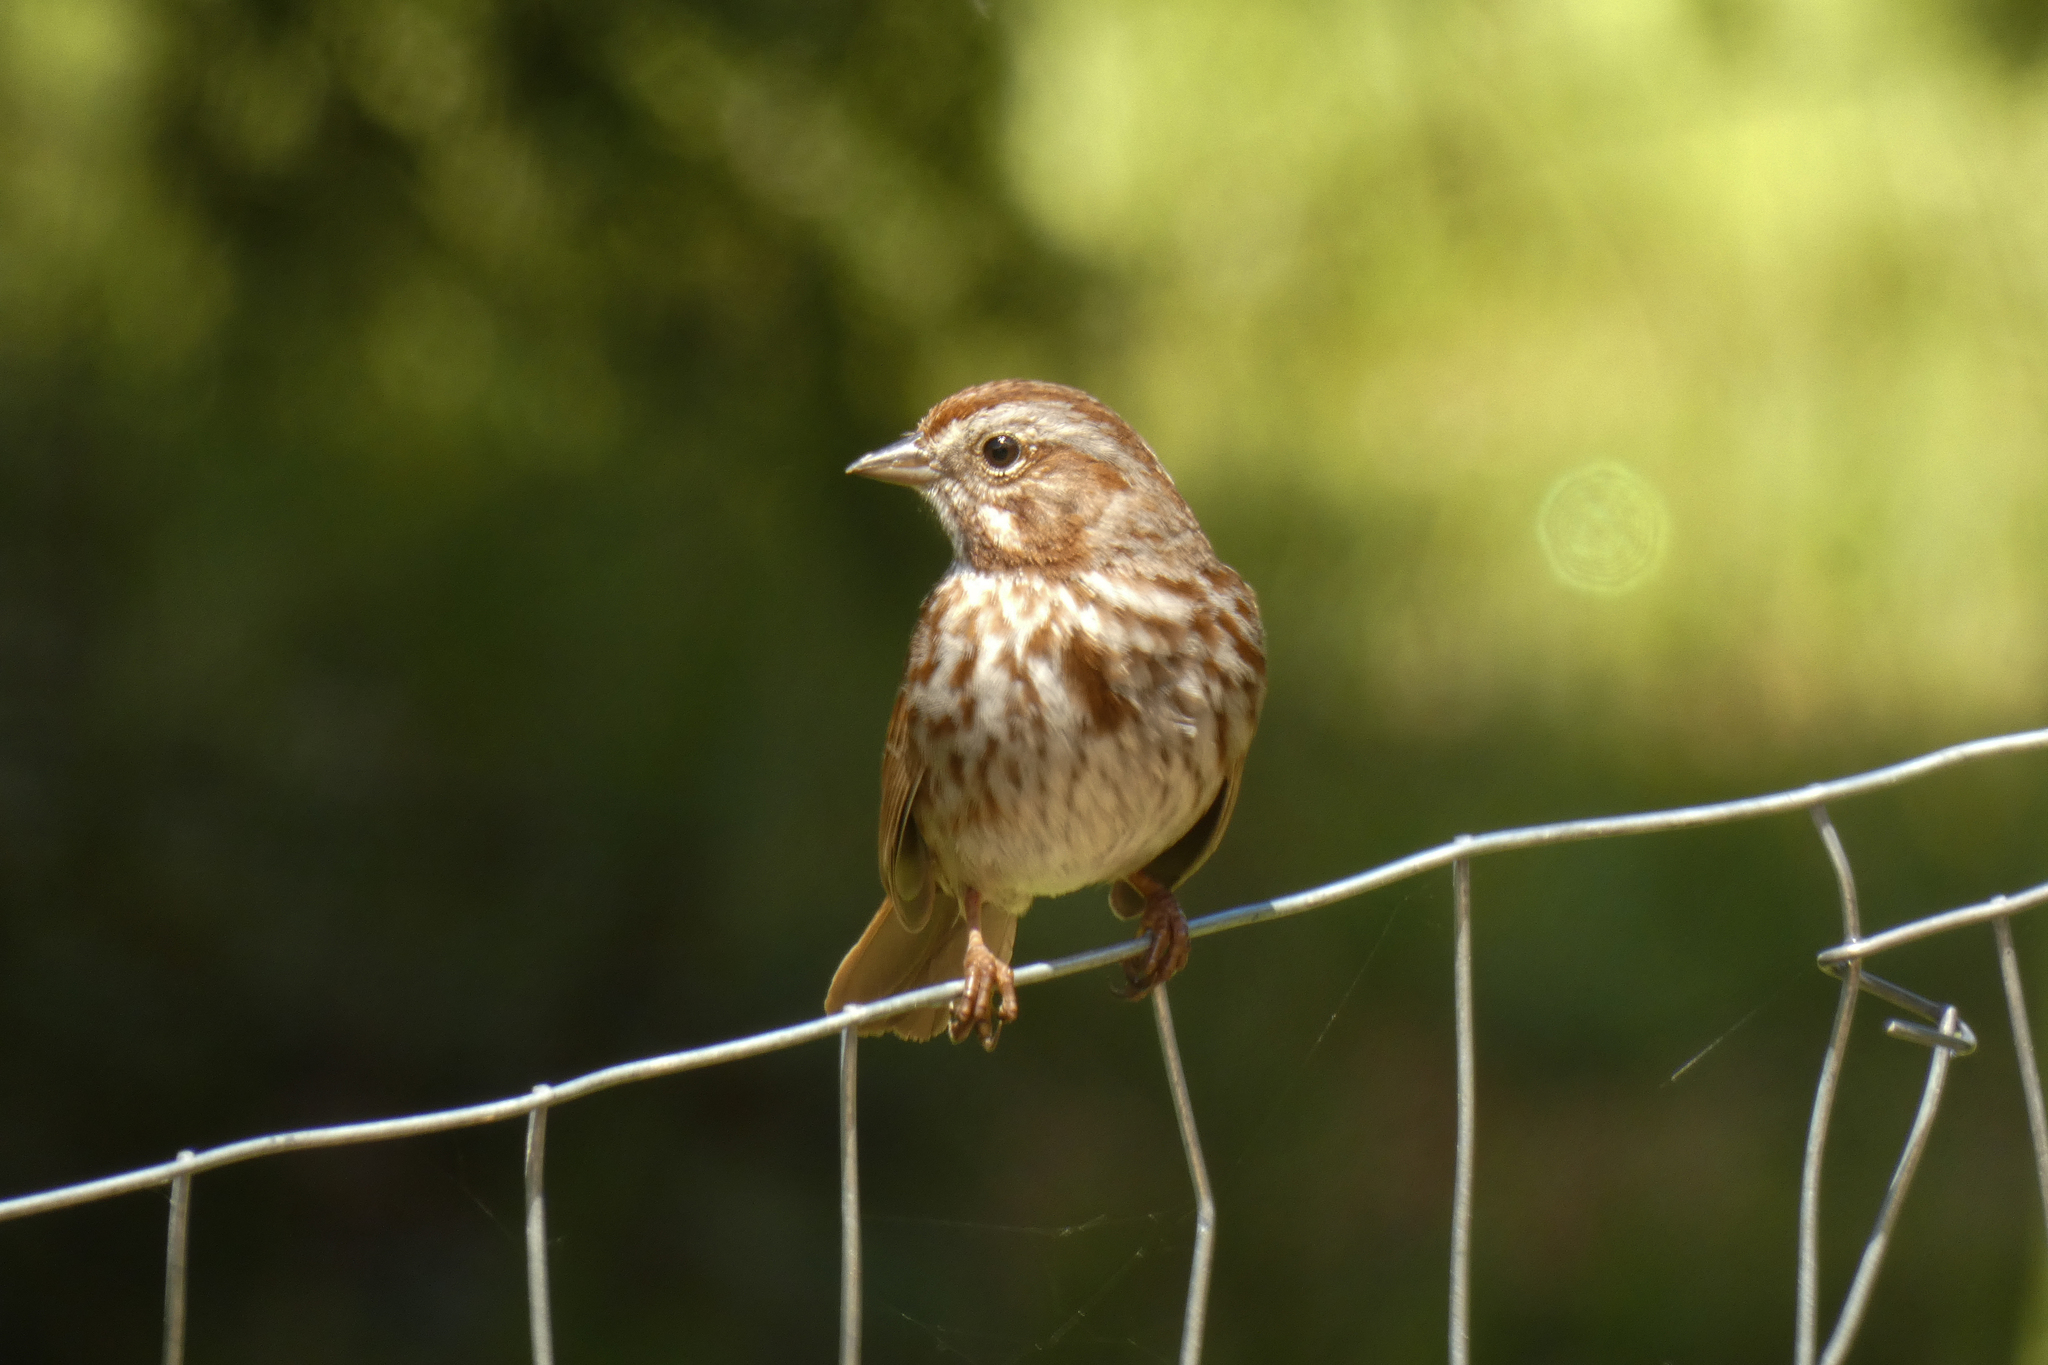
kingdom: Animalia
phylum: Chordata
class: Aves
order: Passeriformes
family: Passerellidae
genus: Melospiza
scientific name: Melospiza melodia
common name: Song sparrow
